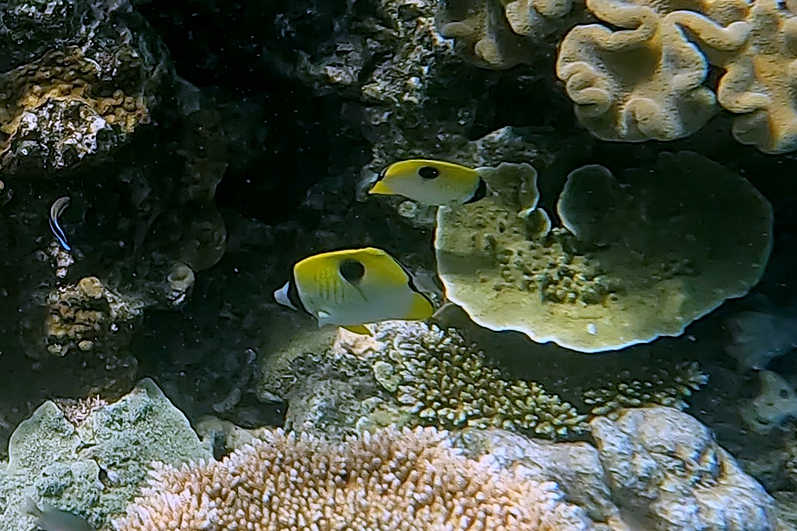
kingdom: Animalia
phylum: Chordata
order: Perciformes
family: Chaetodontidae
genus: Chaetodon
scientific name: Chaetodon unimaculatus
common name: Teardrop butterflyfish
